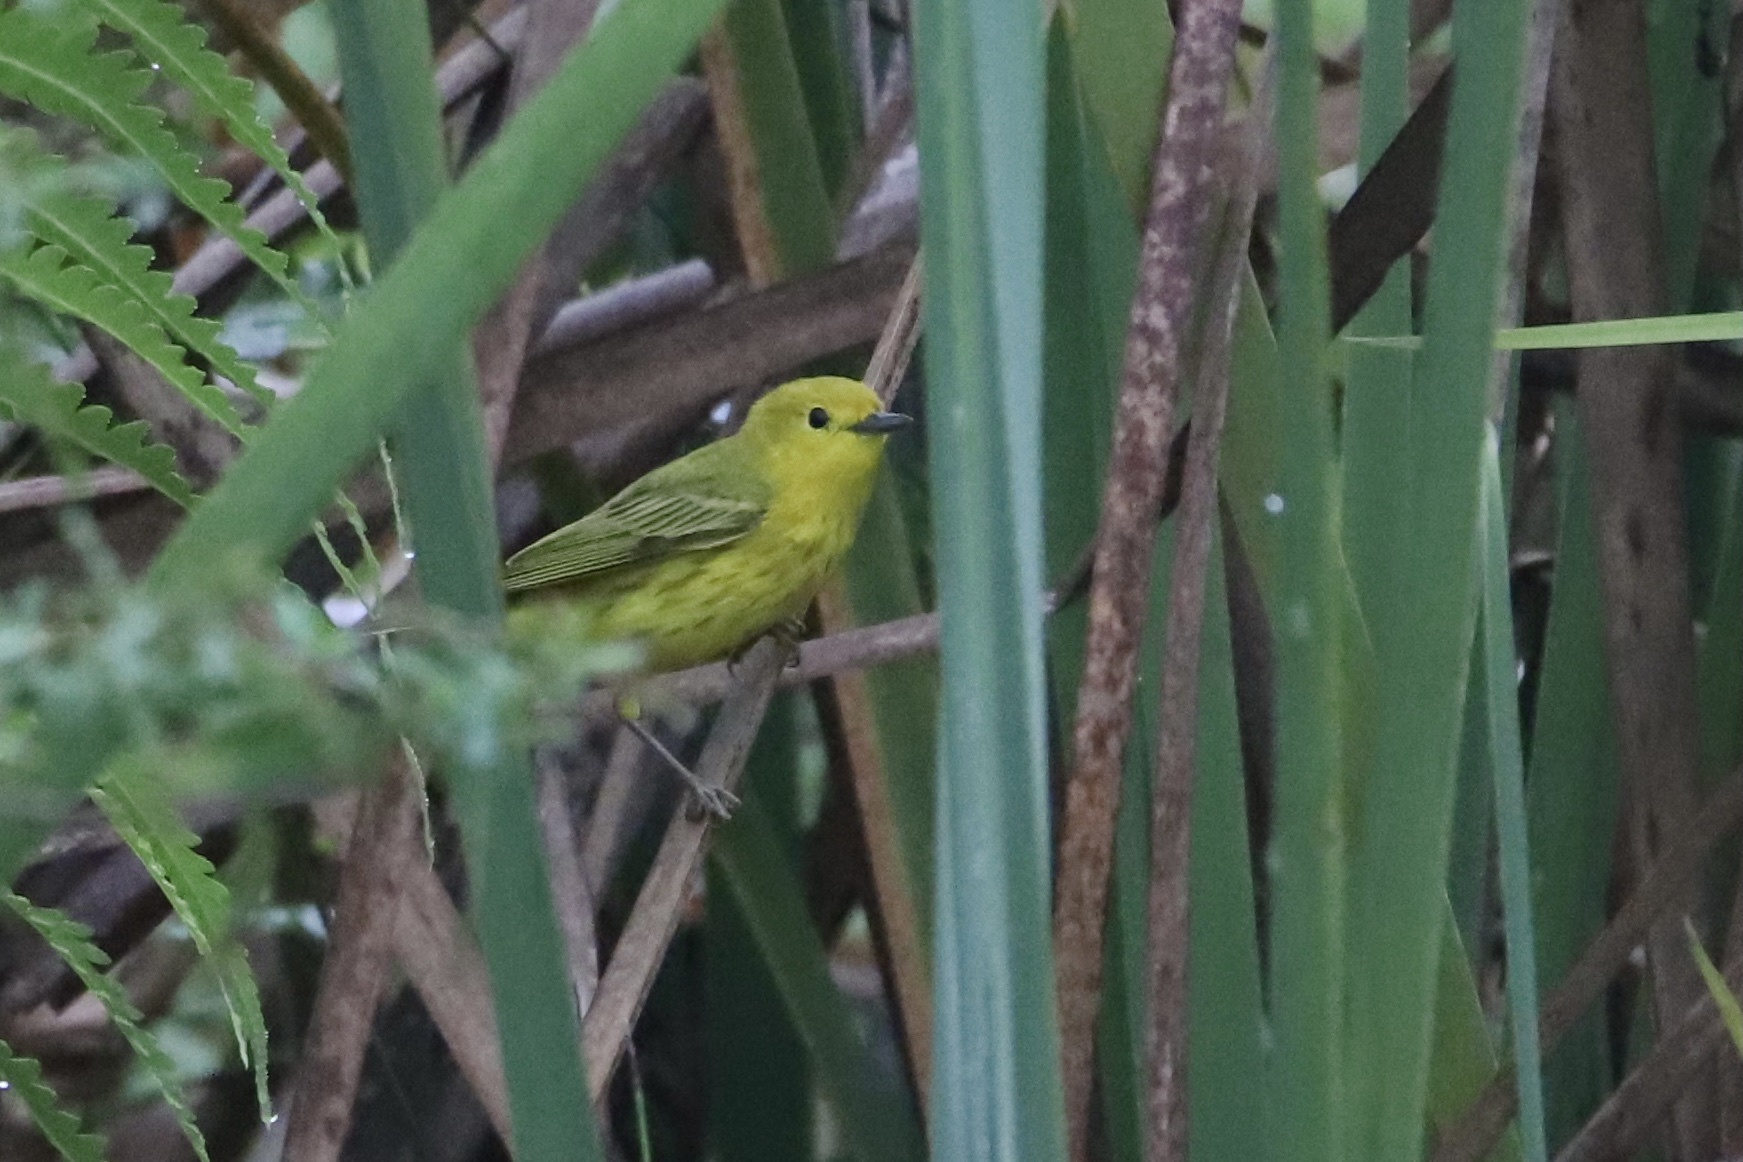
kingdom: Animalia
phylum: Chordata
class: Aves
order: Passeriformes
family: Parulidae
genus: Setophaga
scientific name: Setophaga petechia
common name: Yellow warbler
